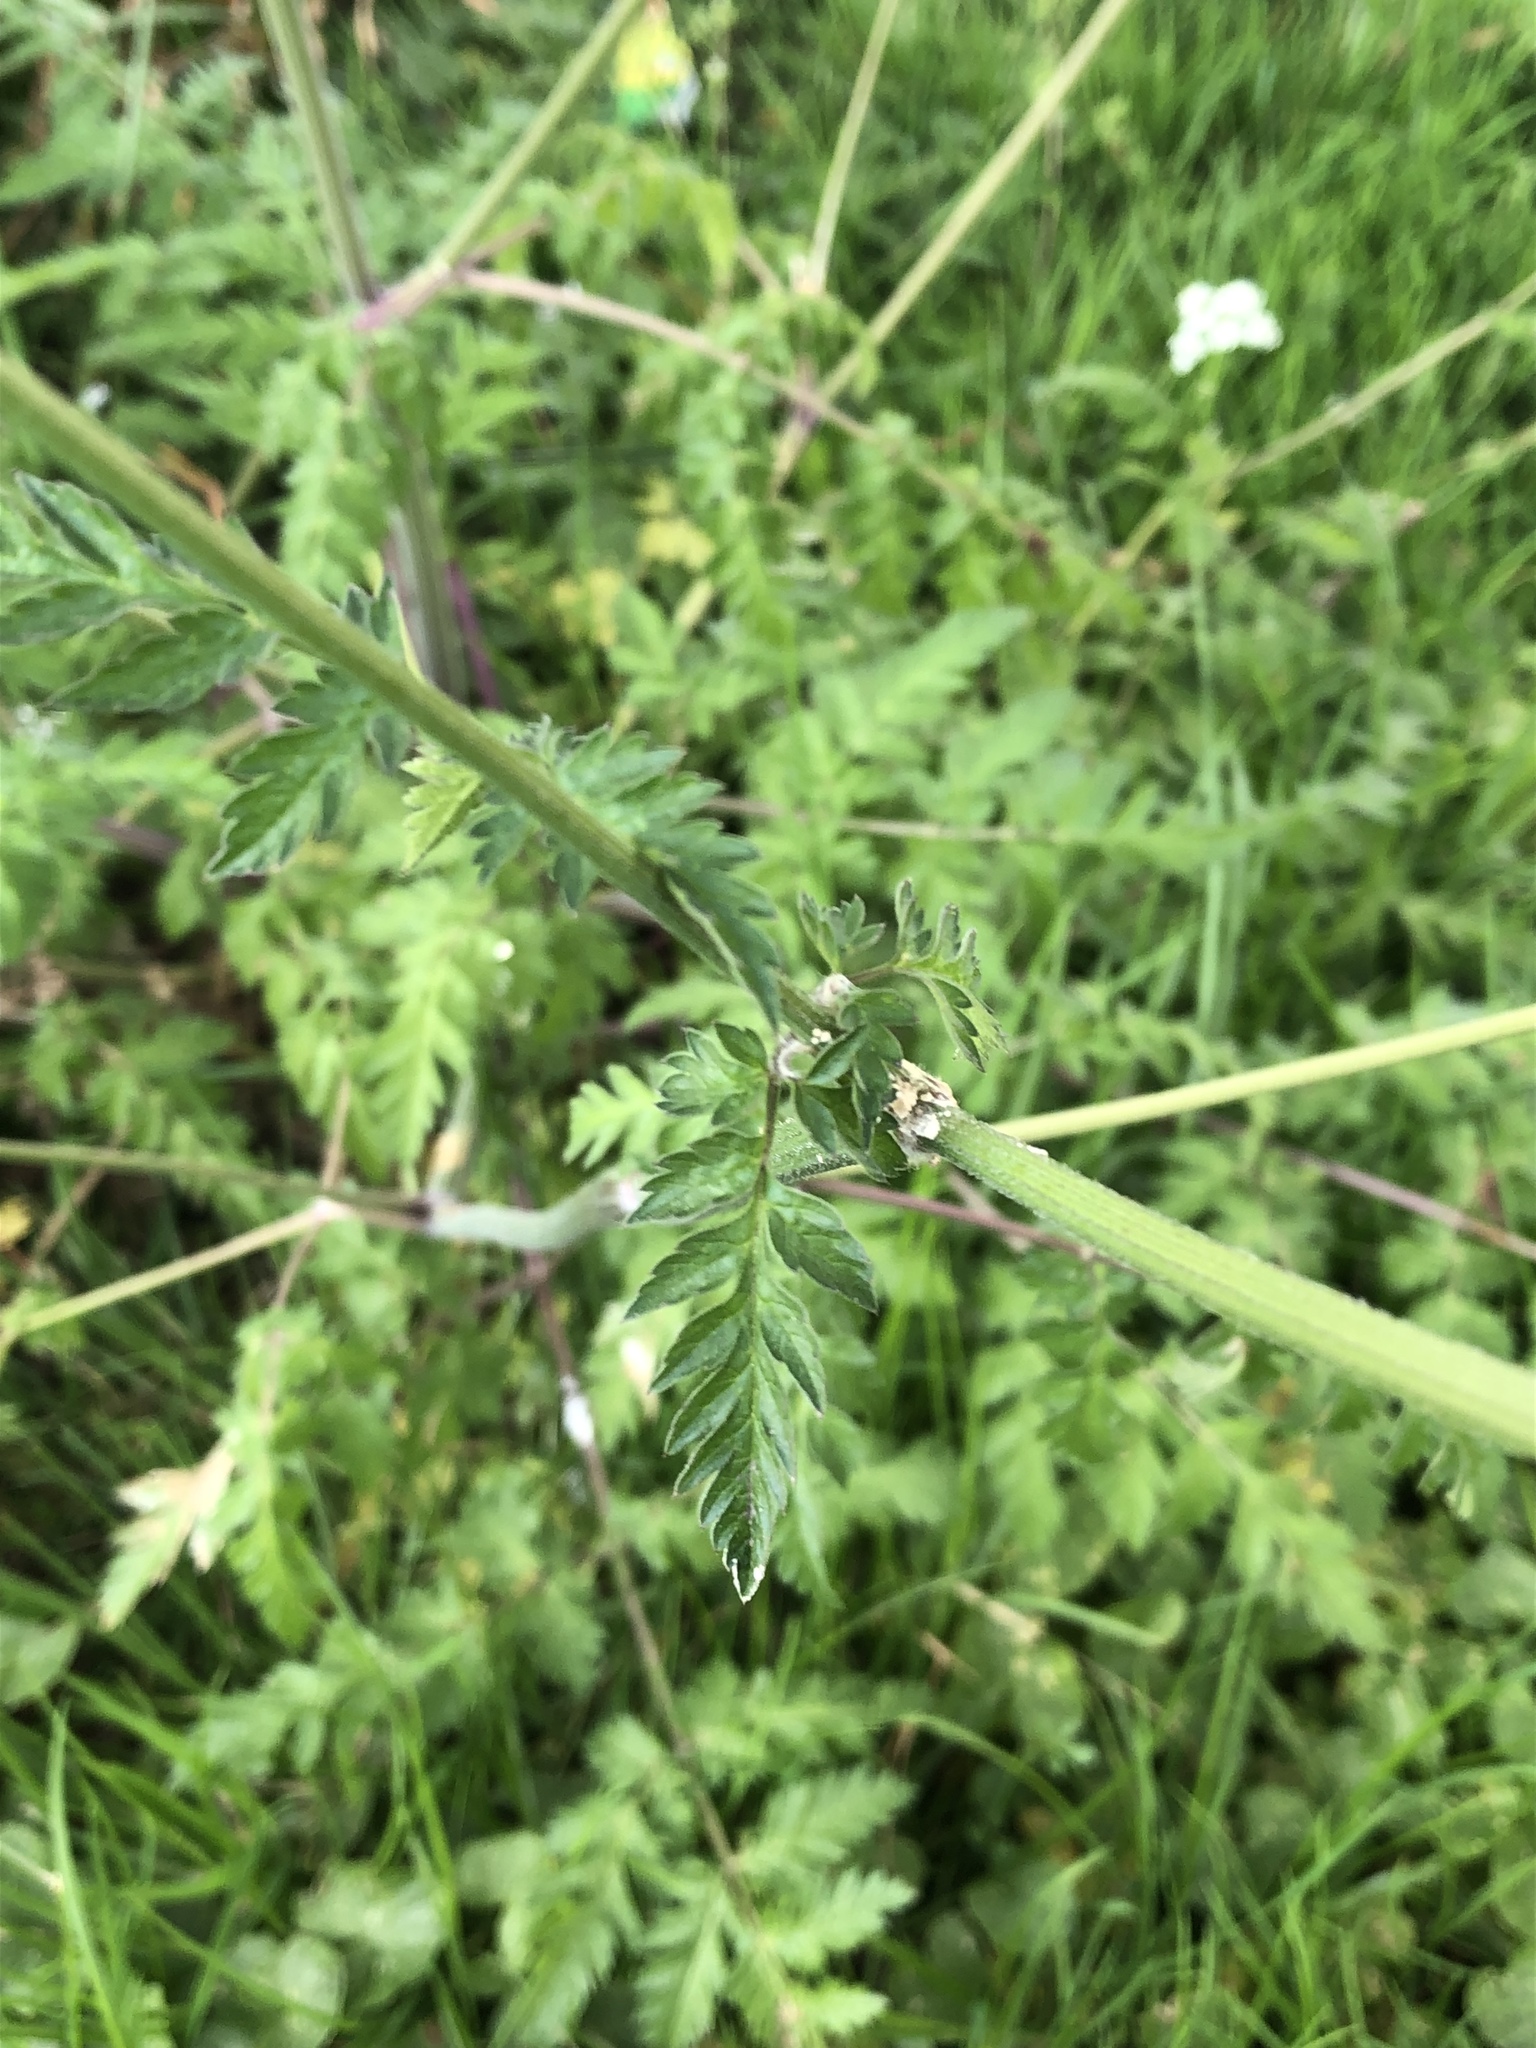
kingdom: Plantae
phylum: Tracheophyta
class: Magnoliopsida
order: Apiales
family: Apiaceae
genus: Anthriscus
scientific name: Anthriscus sylvestris
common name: Cow parsley
